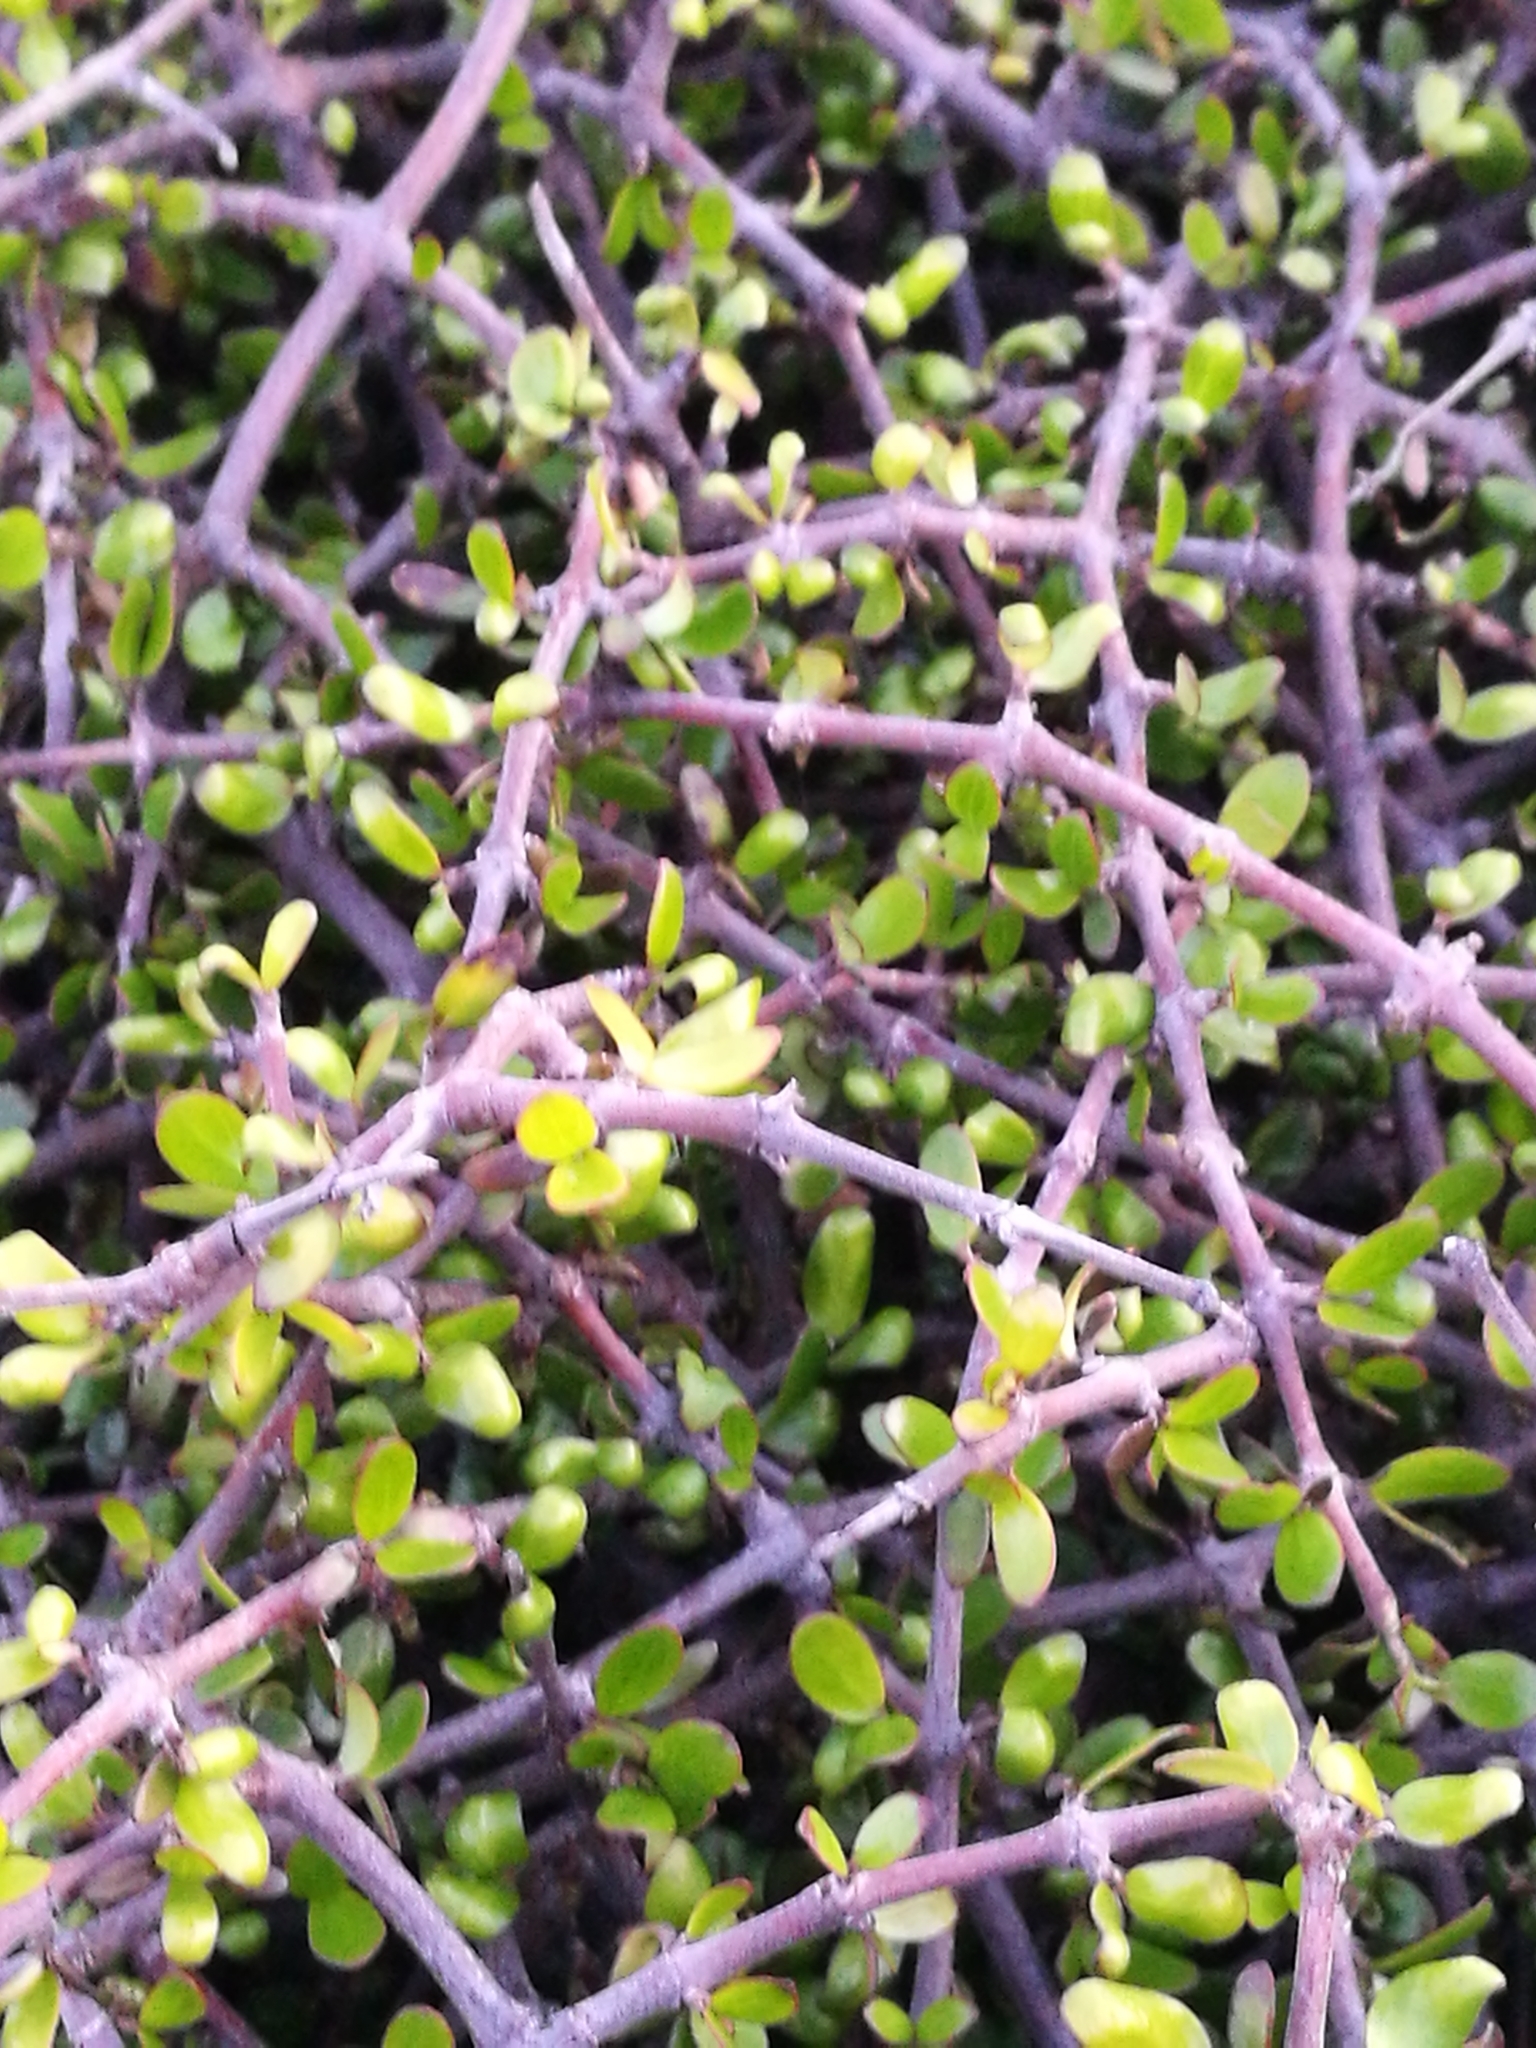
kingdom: Plantae
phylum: Tracheophyta
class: Magnoliopsida
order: Gentianales
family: Rubiaceae
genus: Coprosma
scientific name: Coprosma propinqua
